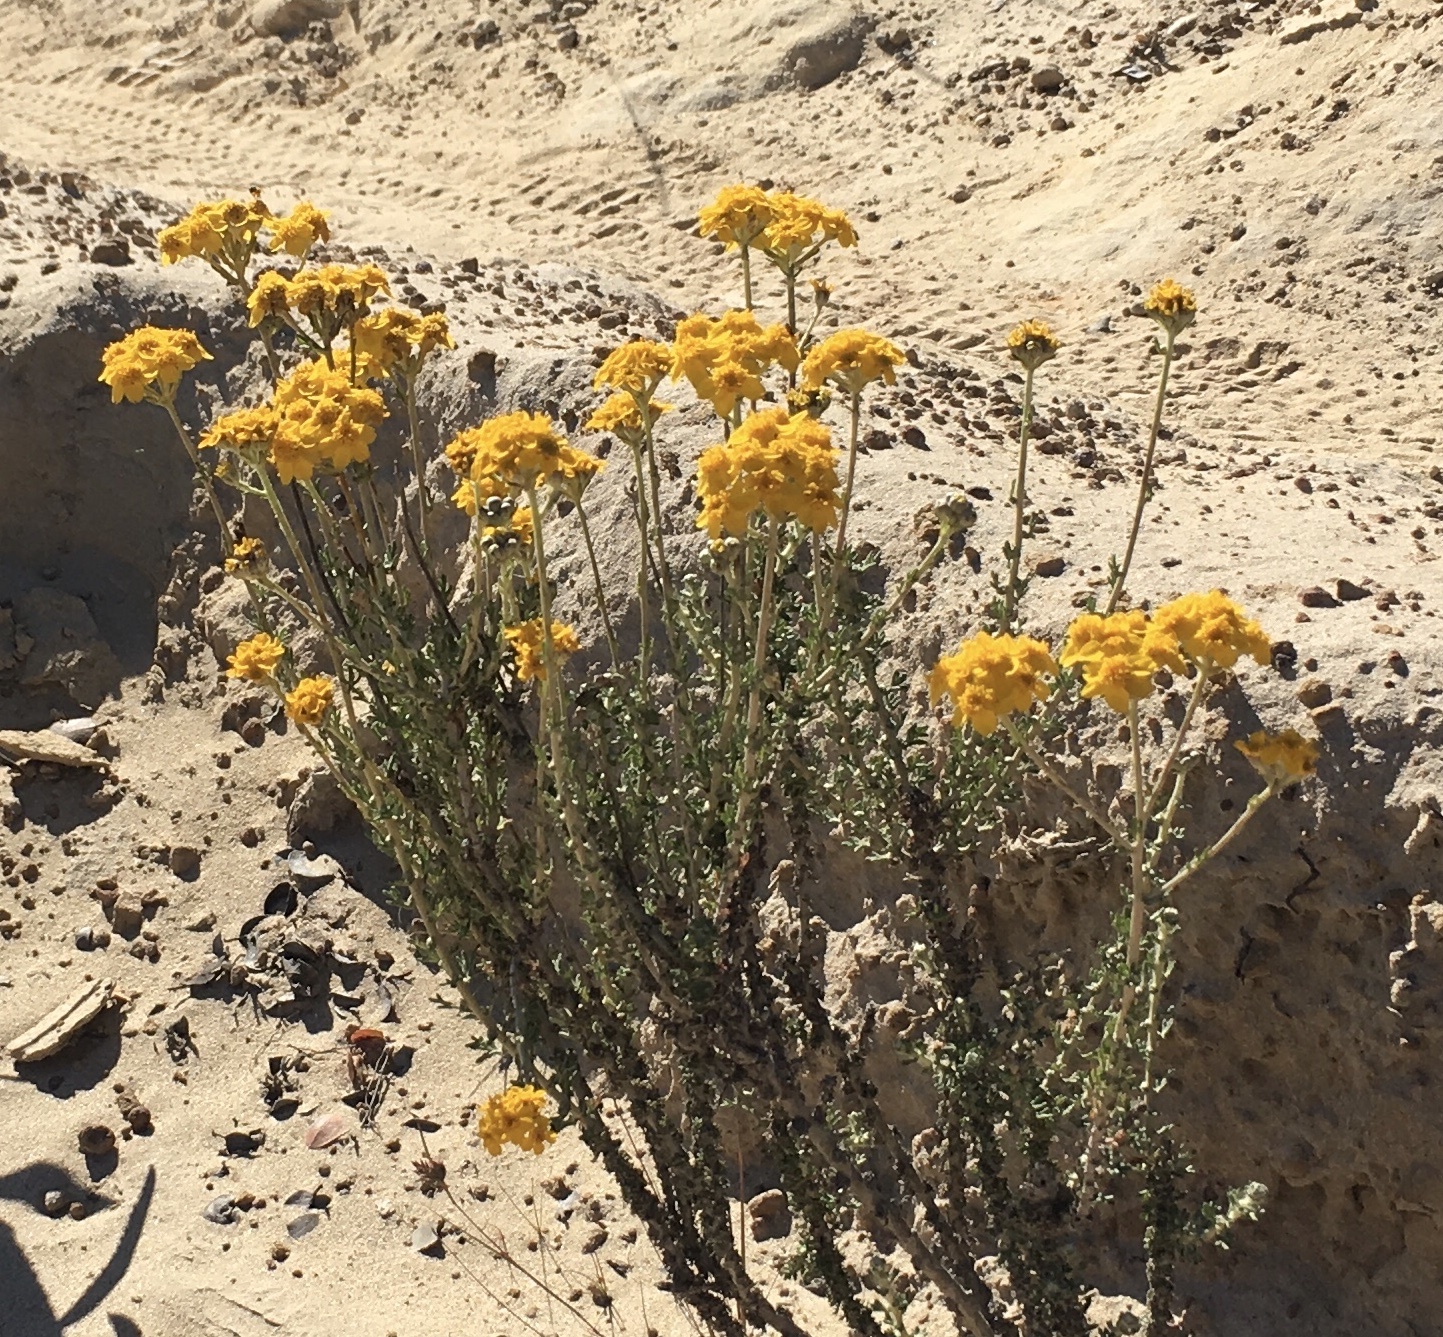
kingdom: Plantae
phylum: Tracheophyta
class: Magnoliopsida
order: Asterales
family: Asteraceae
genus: Eriophyllum
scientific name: Eriophyllum confertiflorum
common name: Golden-yarrow
